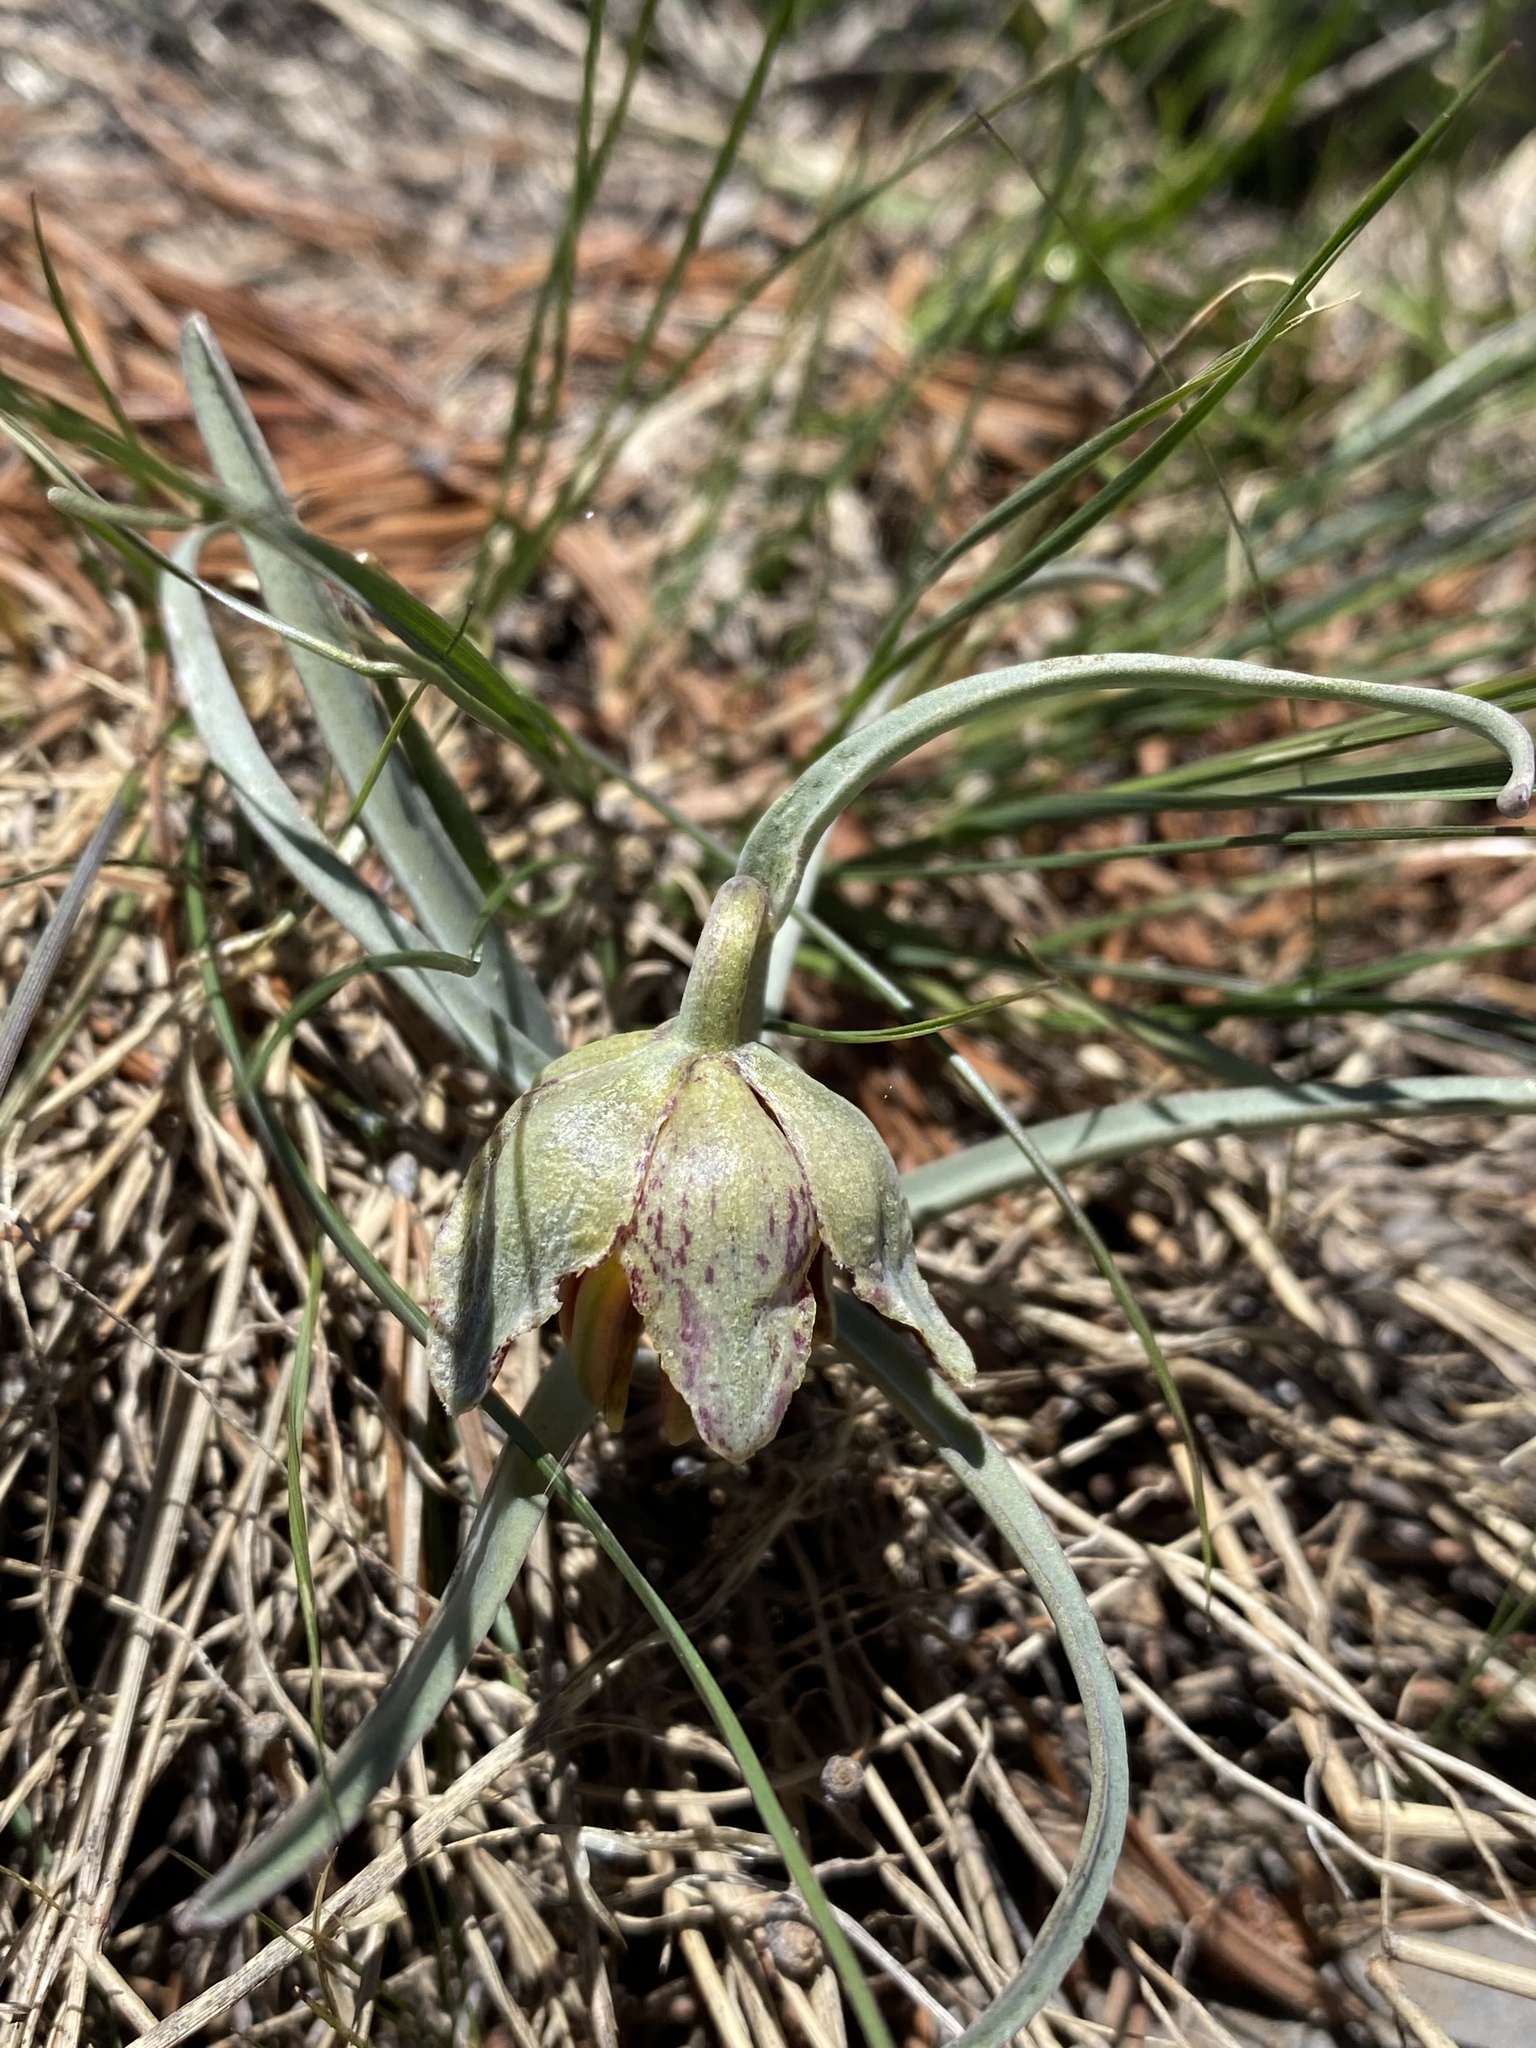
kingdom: Plantae
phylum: Tracheophyta
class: Liliopsida
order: Liliales
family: Liliaceae
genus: Fritillaria
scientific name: Fritillaria atropurpurea
